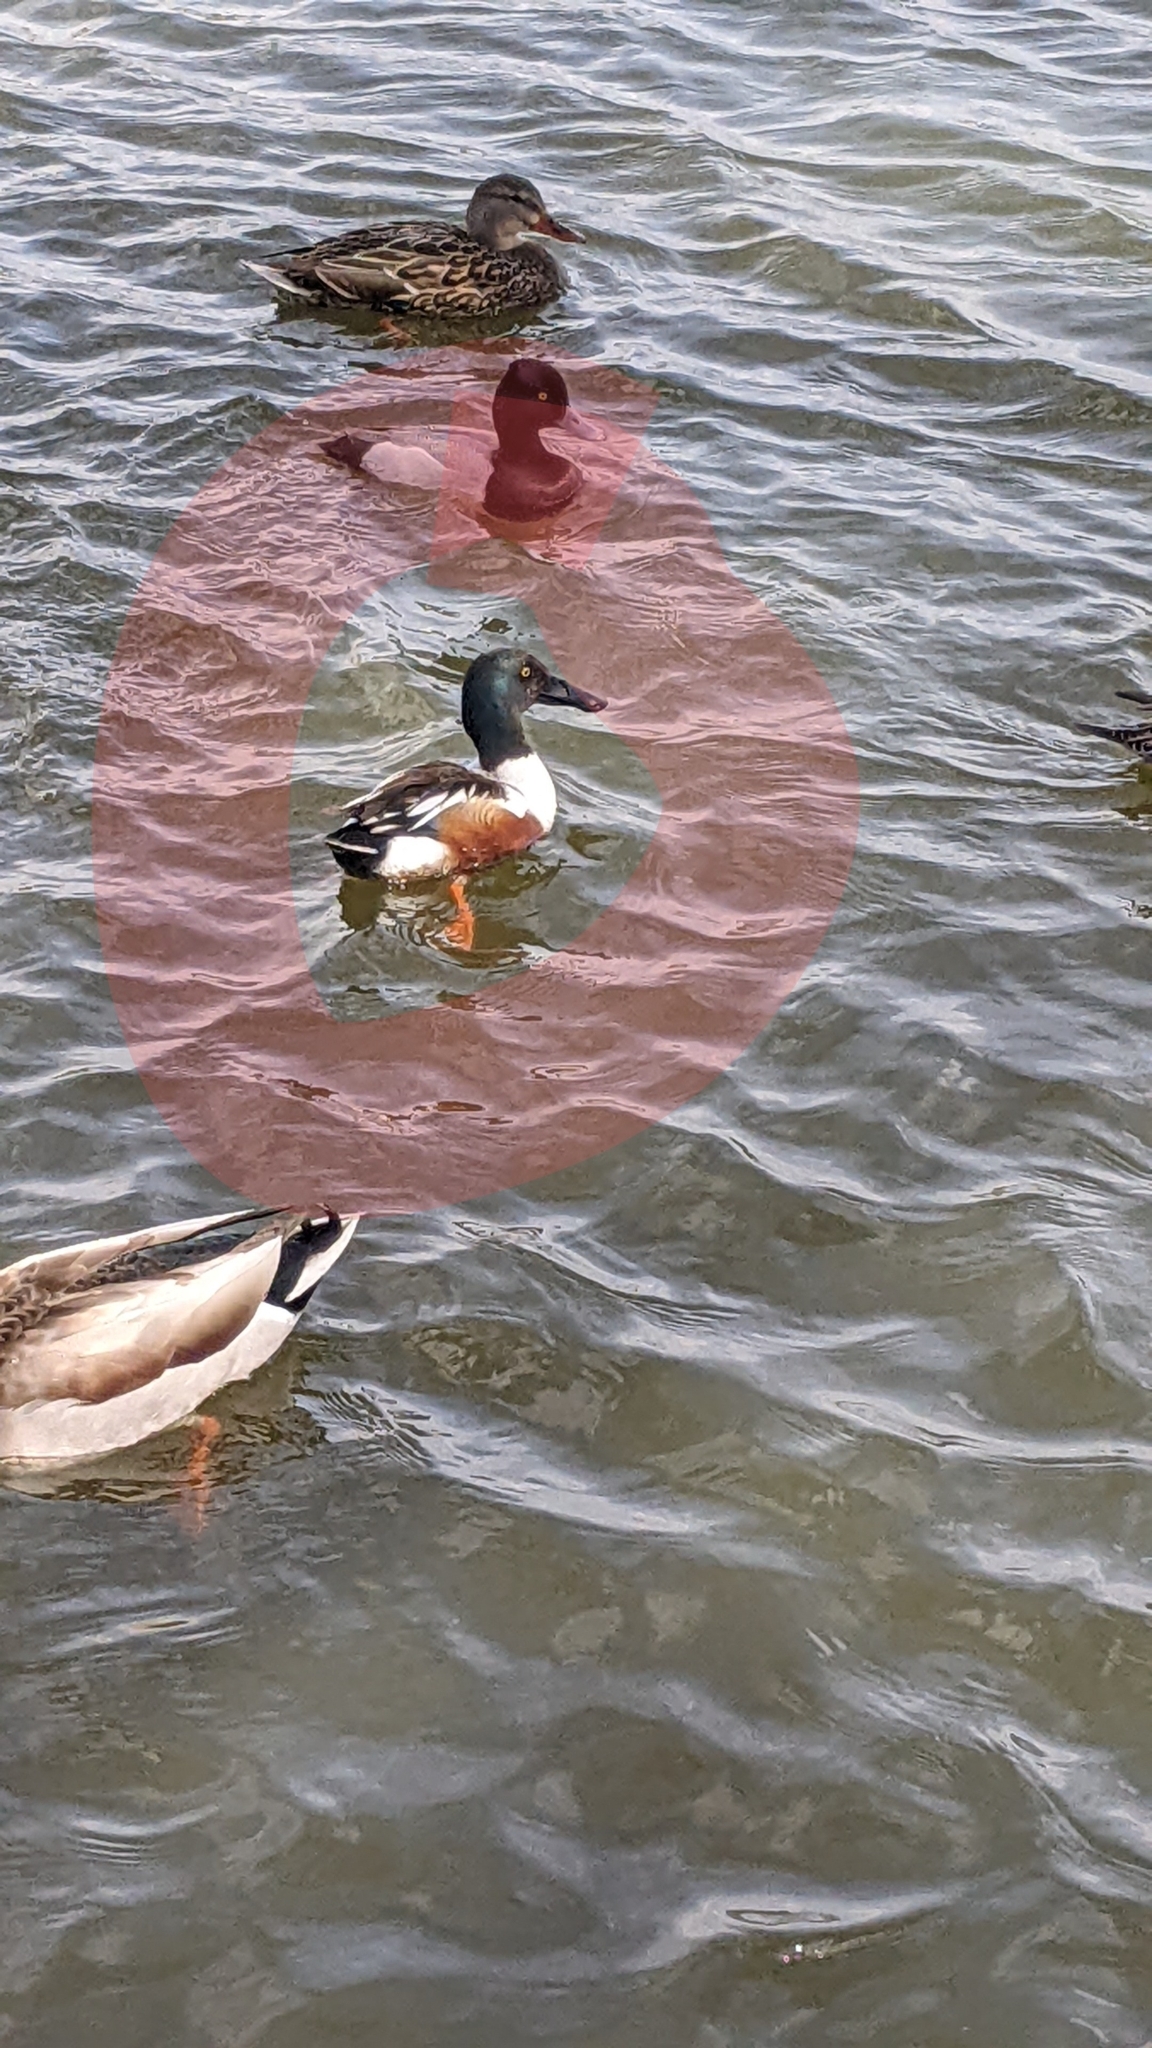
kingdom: Animalia
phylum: Chordata
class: Aves
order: Anseriformes
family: Anatidae
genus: Spatula
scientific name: Spatula clypeata
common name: Northern shoveler
